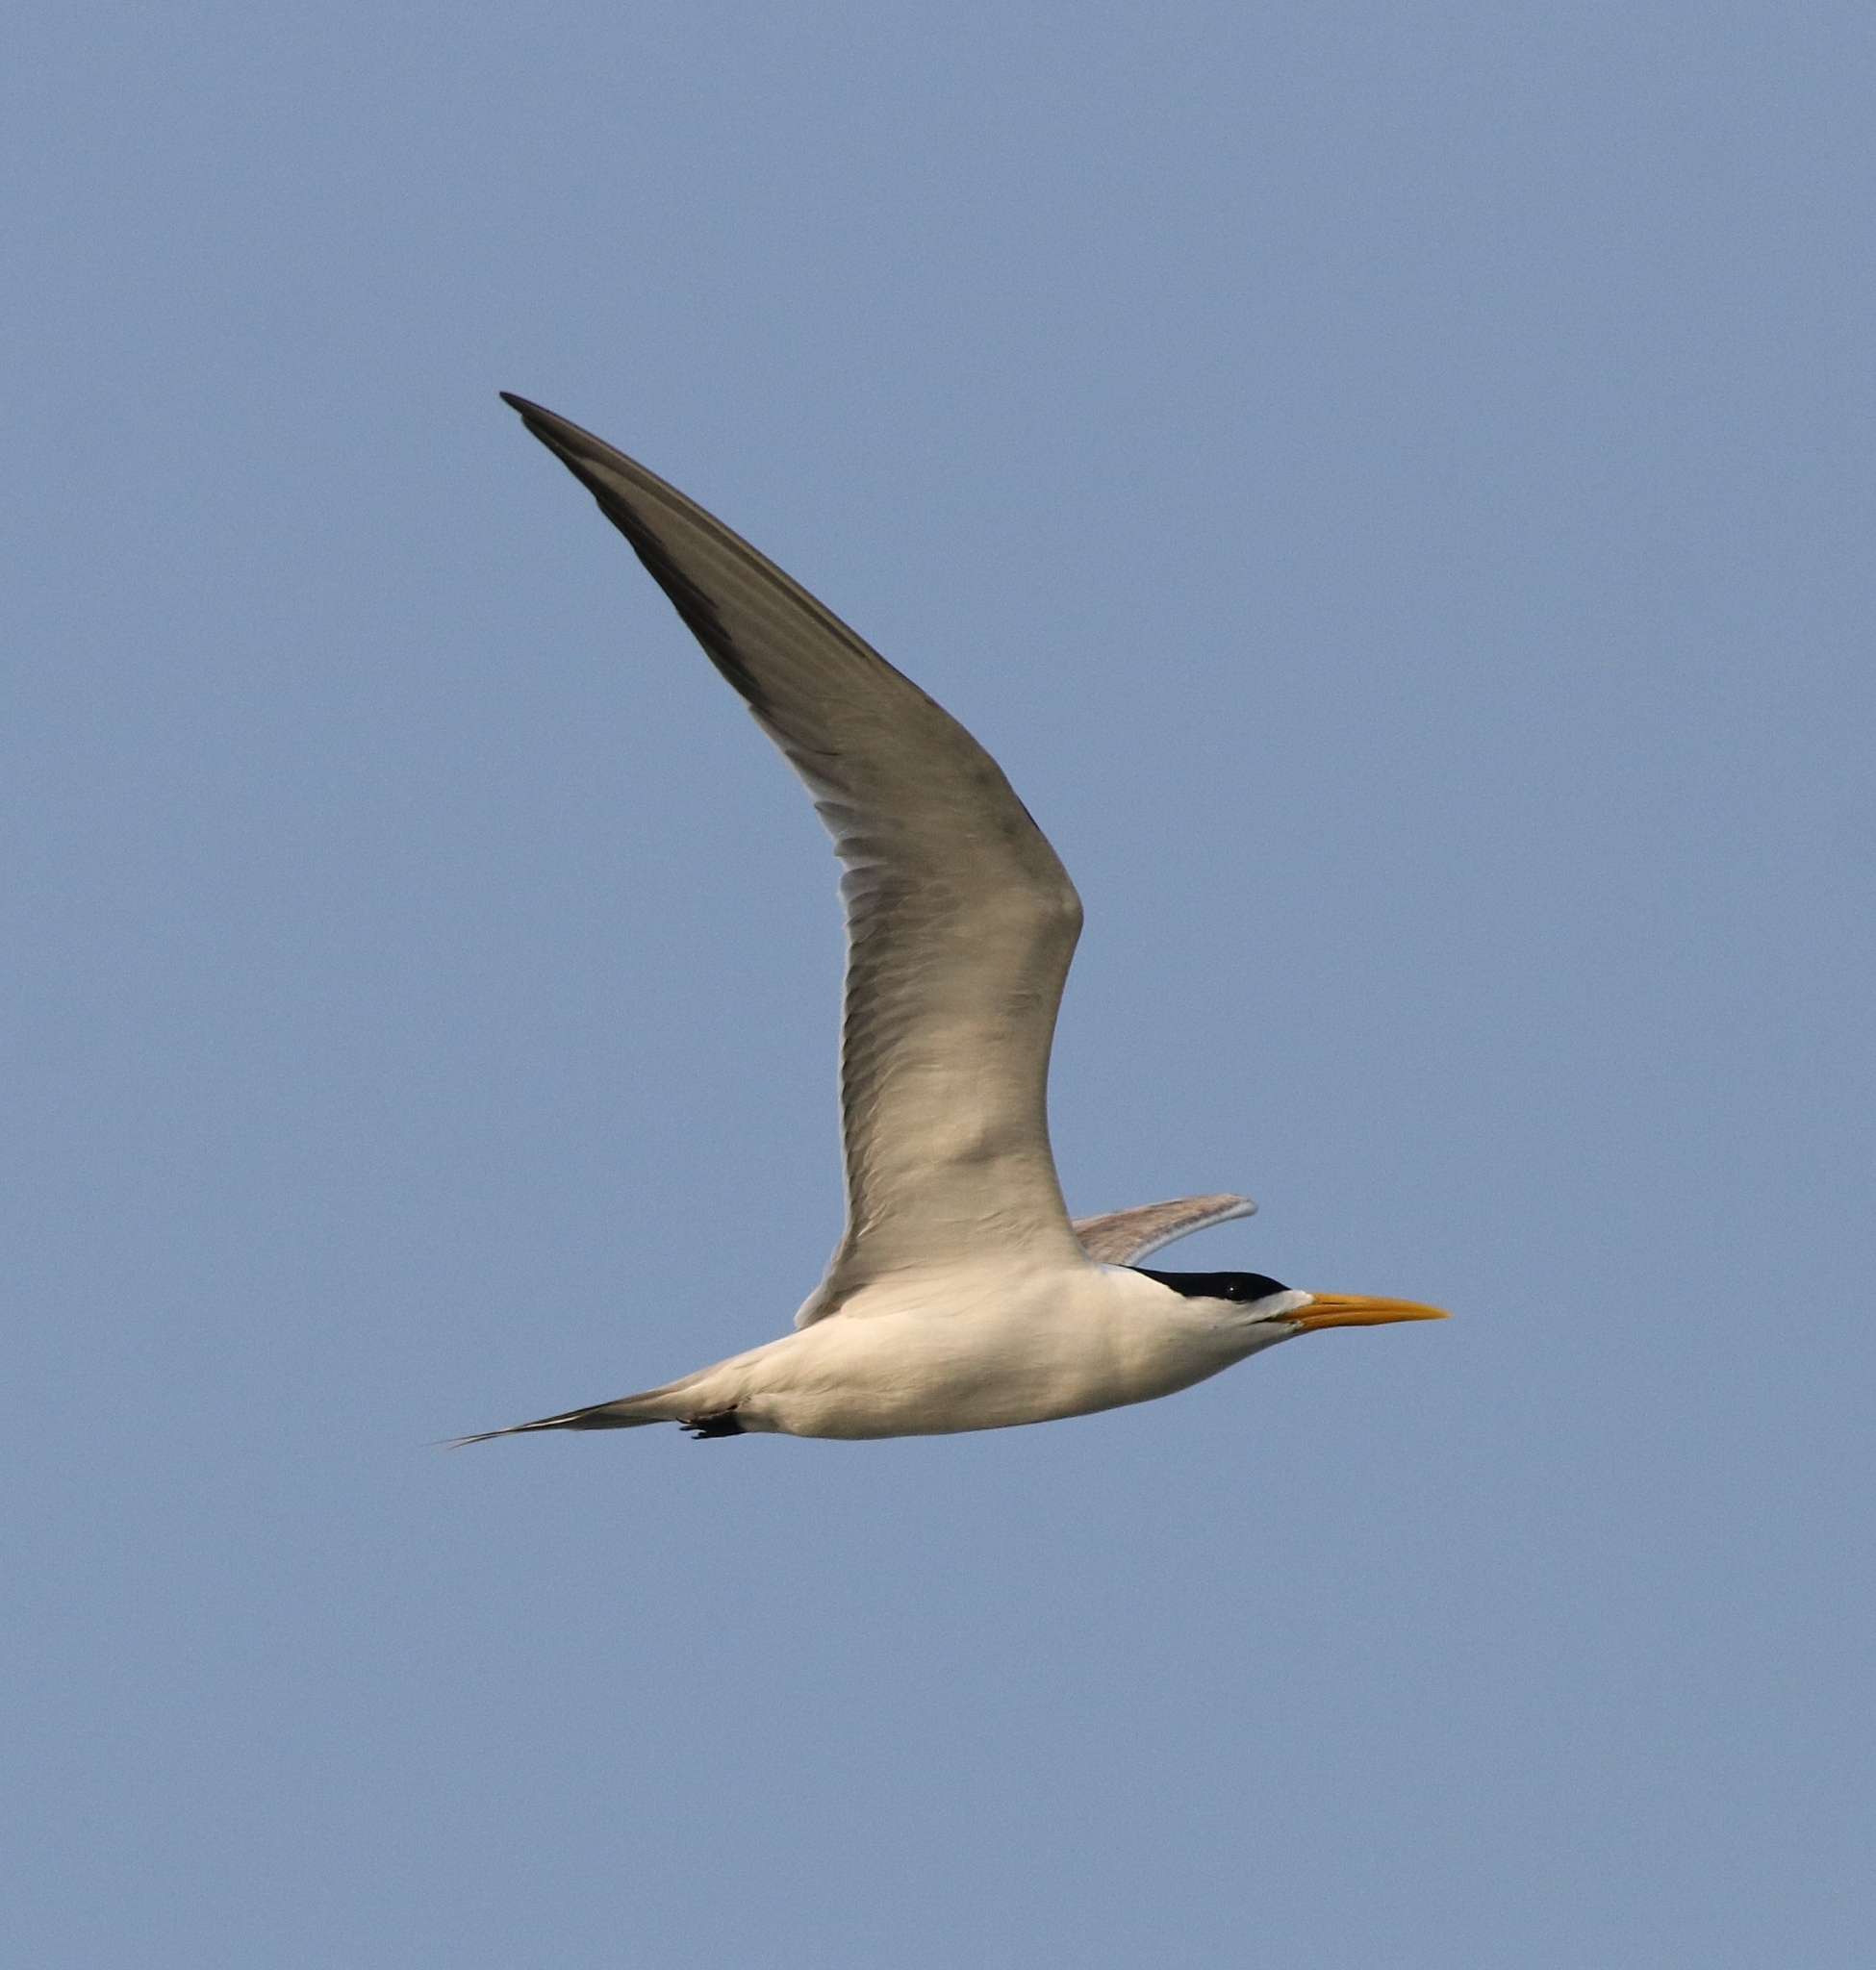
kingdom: Animalia
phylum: Chordata
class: Aves
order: Charadriiformes
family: Laridae
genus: Thalasseus
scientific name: Thalasseus bengalensis
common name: Lesser crested tern
